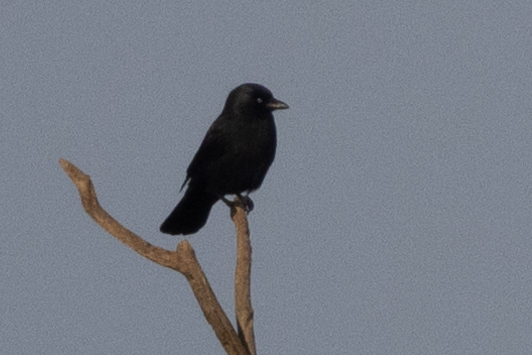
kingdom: Animalia
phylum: Chordata
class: Aves
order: Passeriformes
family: Corvidae
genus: Coloeus
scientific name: Coloeus monedula
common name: Western jackdaw
